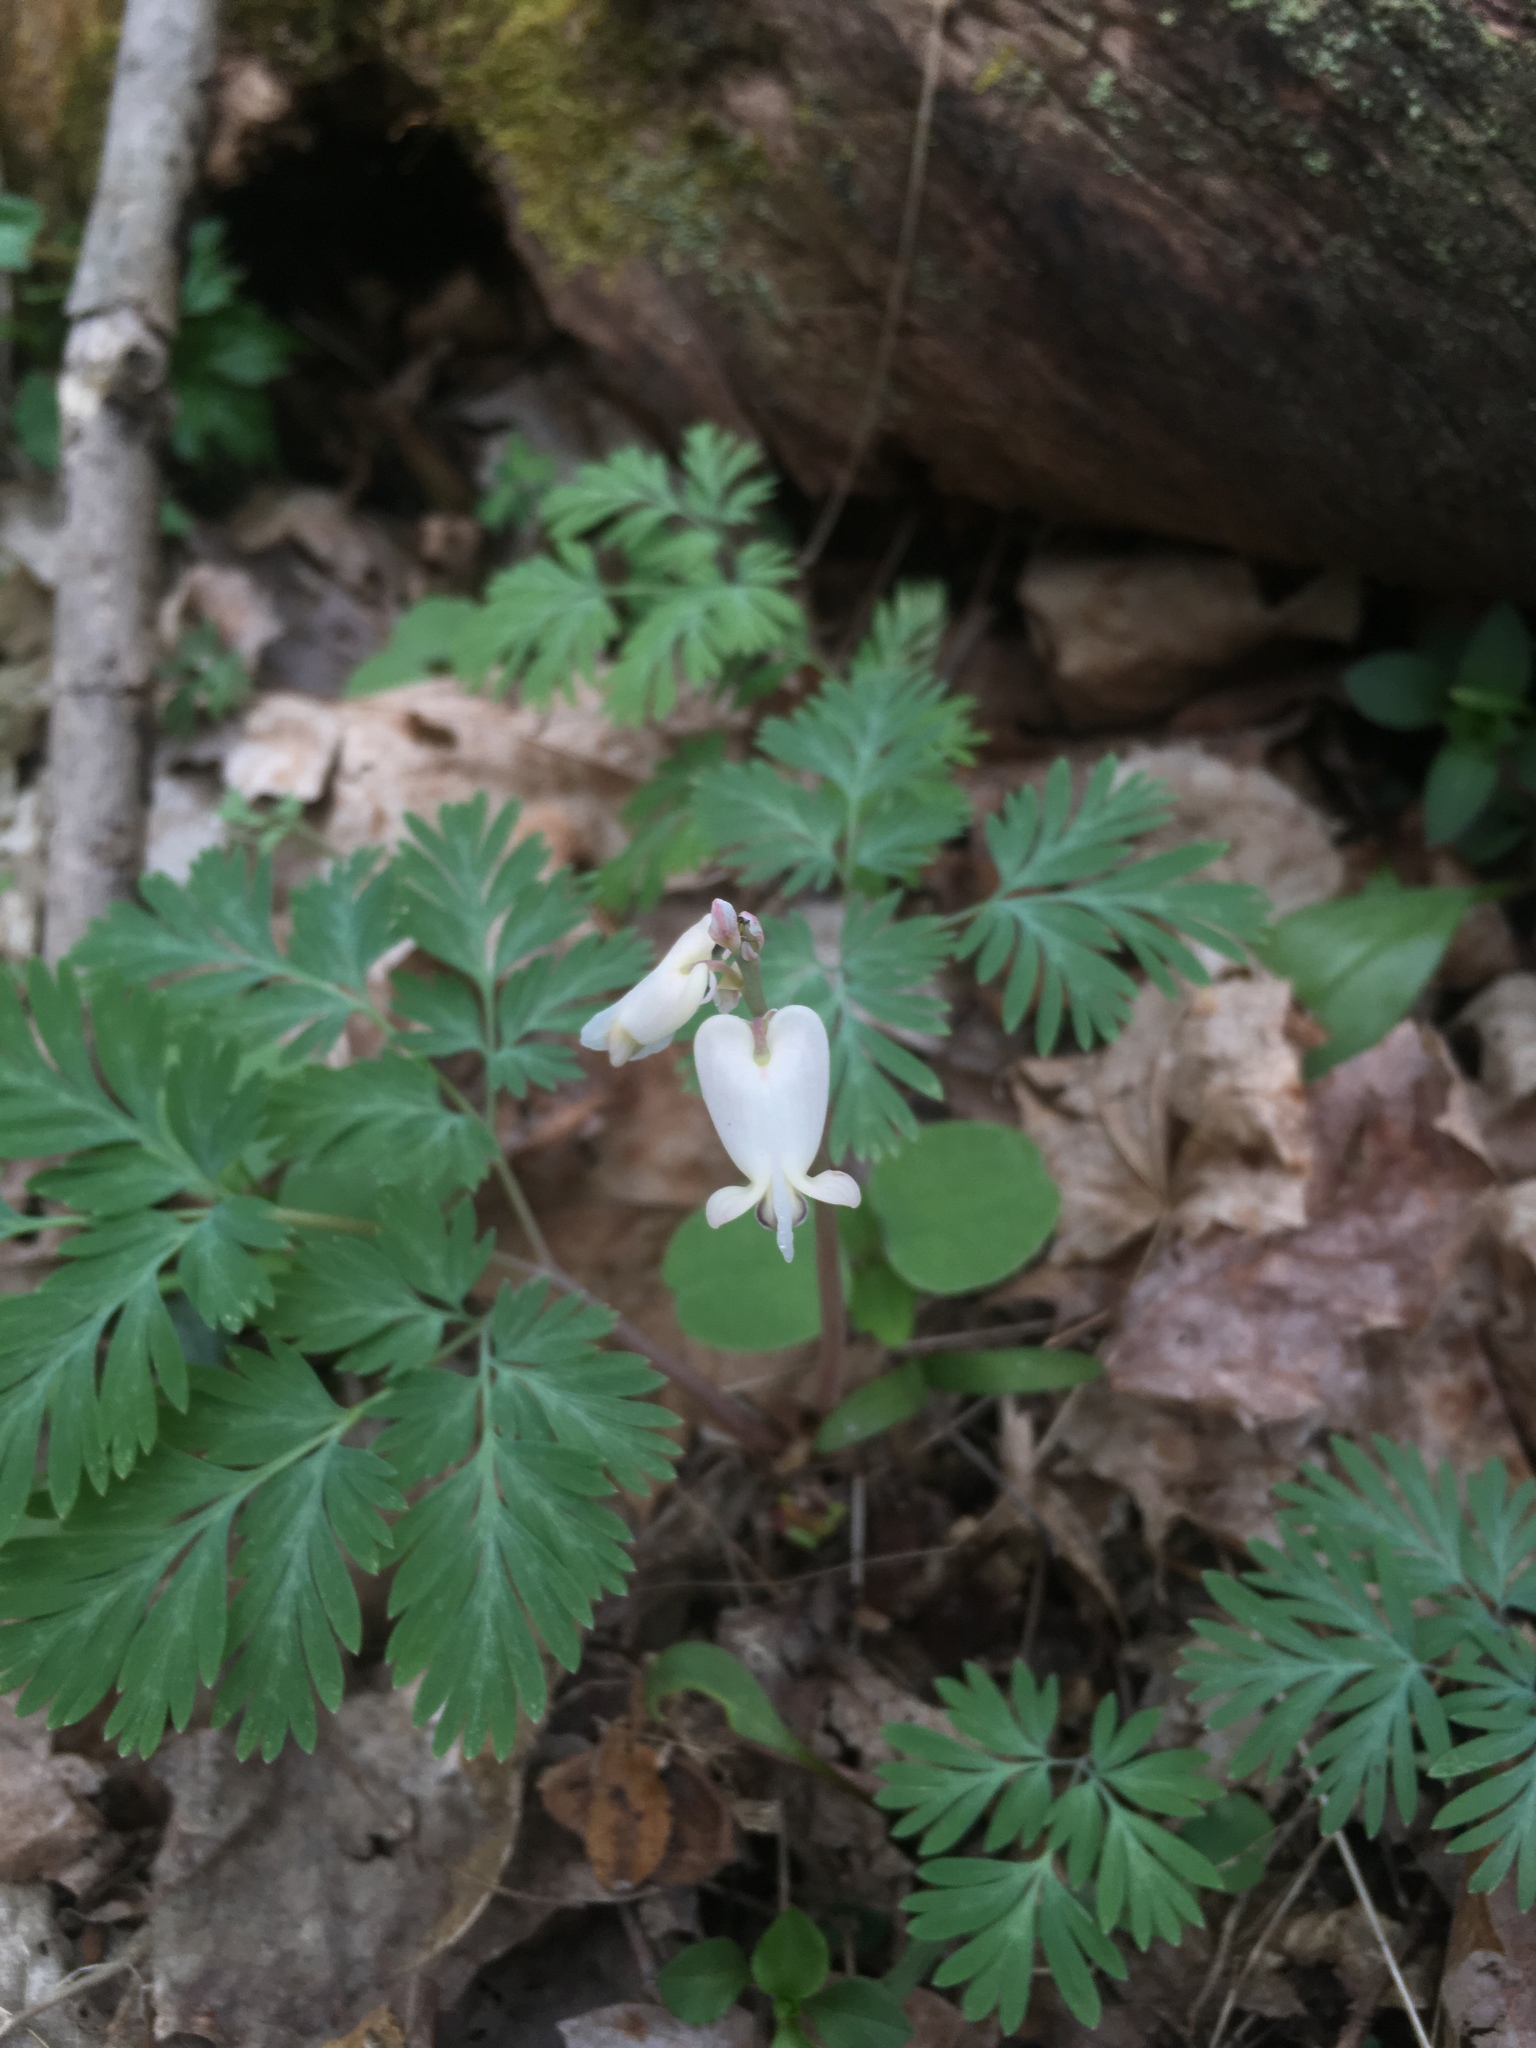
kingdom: Plantae
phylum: Tracheophyta
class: Magnoliopsida
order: Ranunculales
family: Papaveraceae
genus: Dicentra
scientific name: Dicentra canadensis
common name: Squirrel-corn
